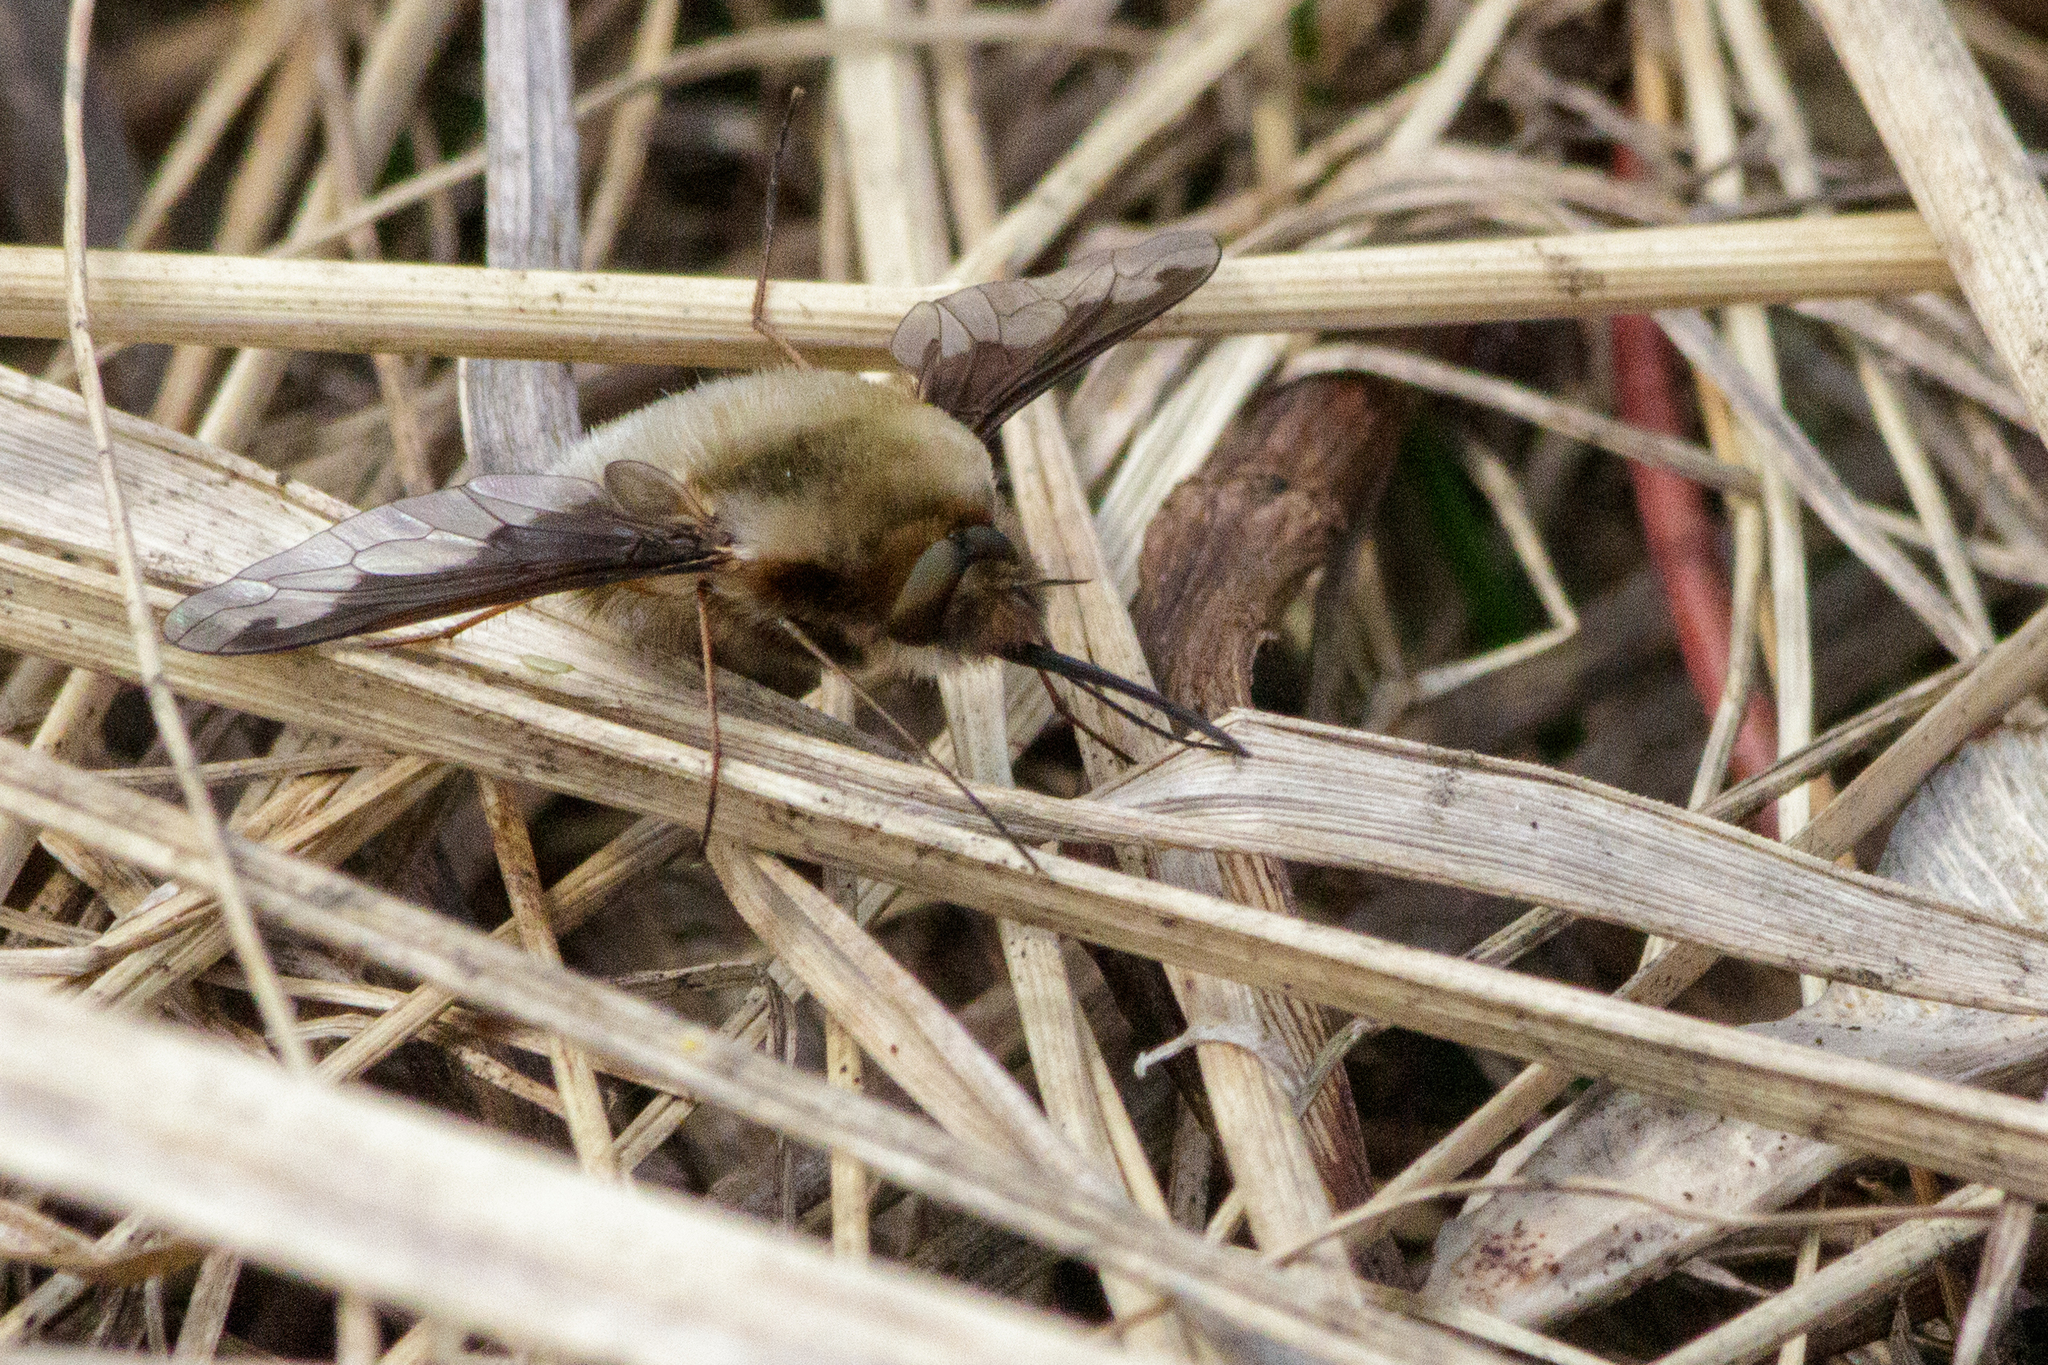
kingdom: Animalia
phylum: Arthropoda
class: Insecta
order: Diptera
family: Bombyliidae
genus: Bombylius
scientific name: Bombylius major
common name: Bee fly
